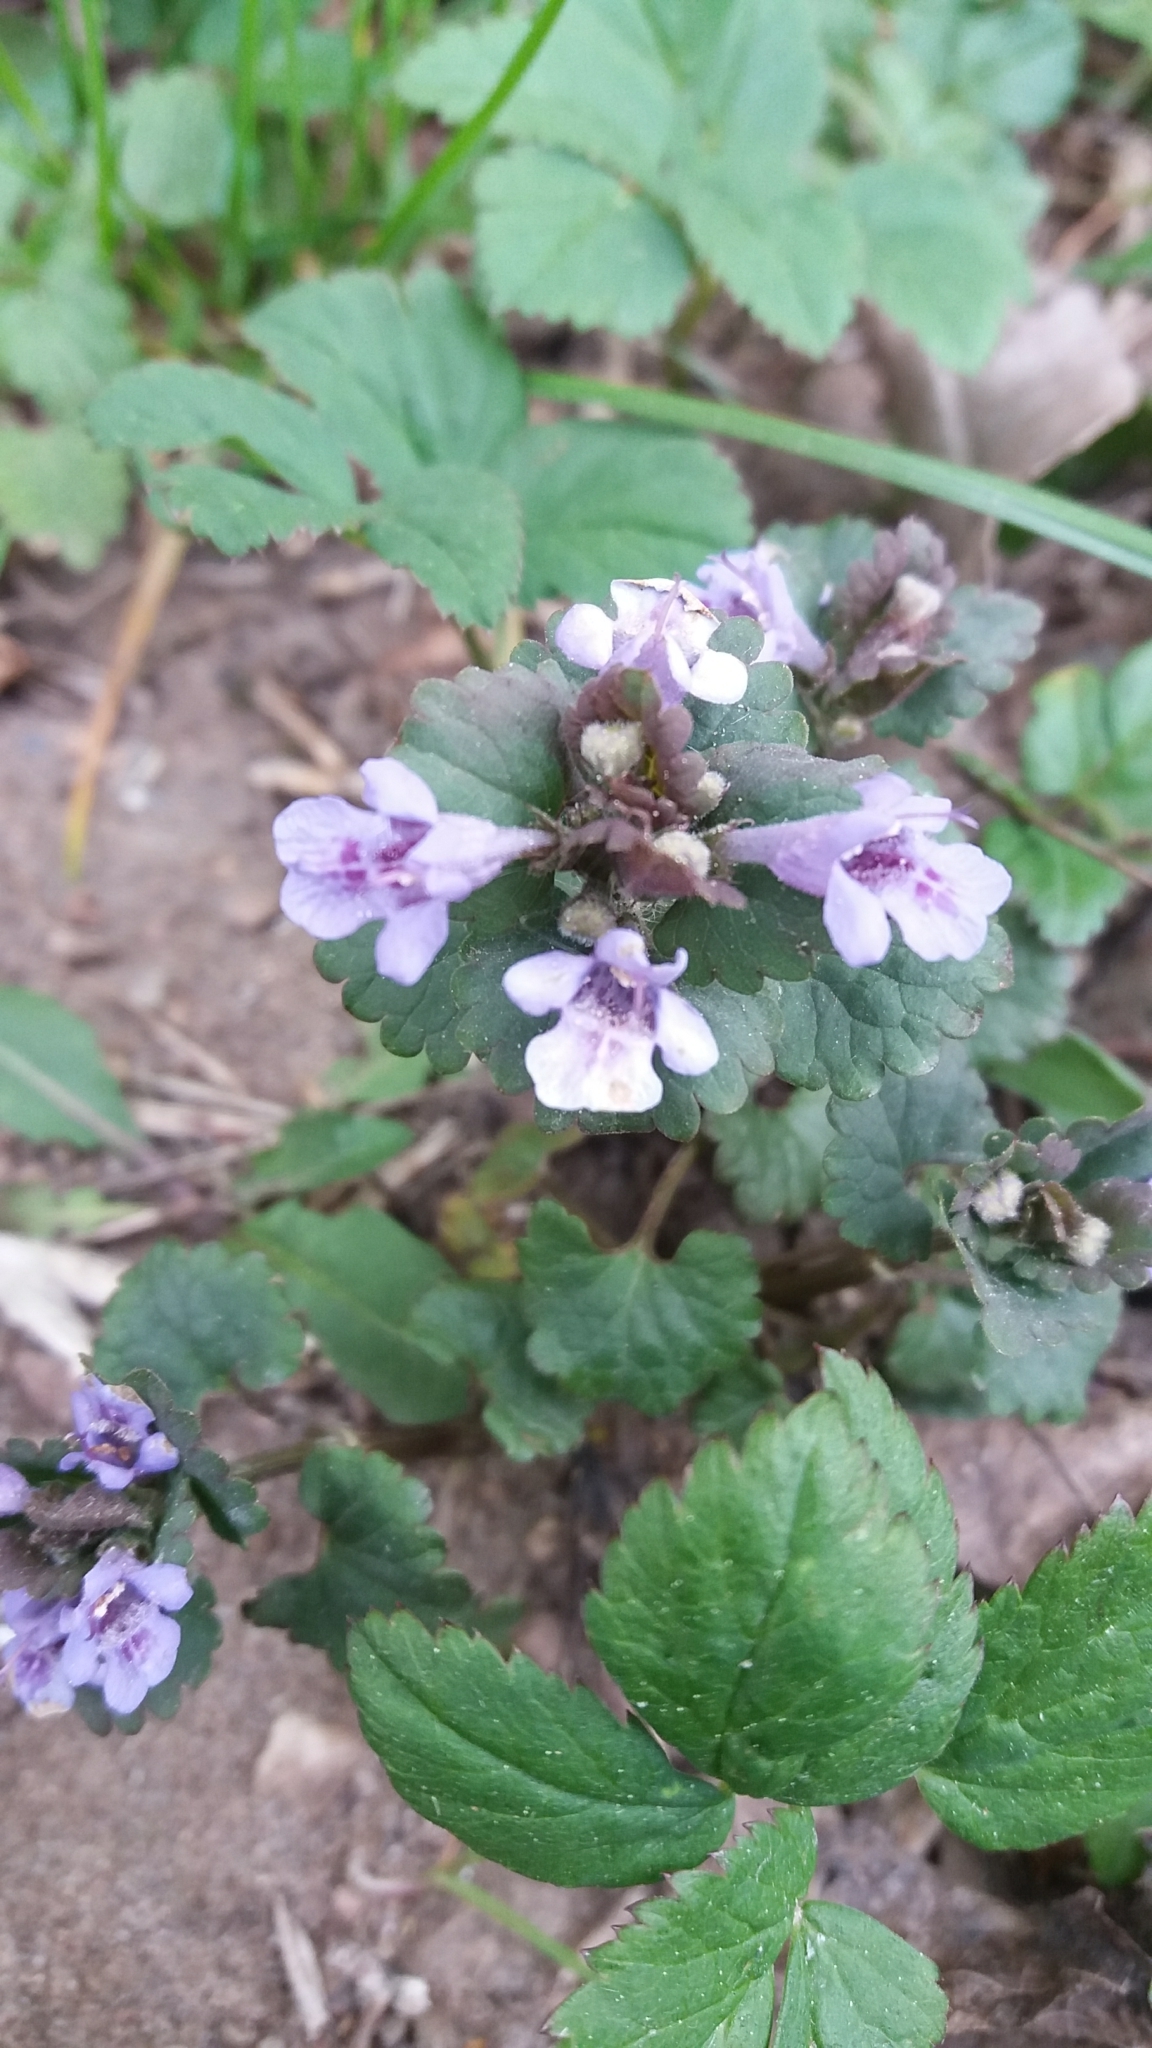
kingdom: Plantae
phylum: Tracheophyta
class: Magnoliopsida
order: Lamiales
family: Lamiaceae
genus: Glechoma
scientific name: Glechoma hederacea
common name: Ground ivy
